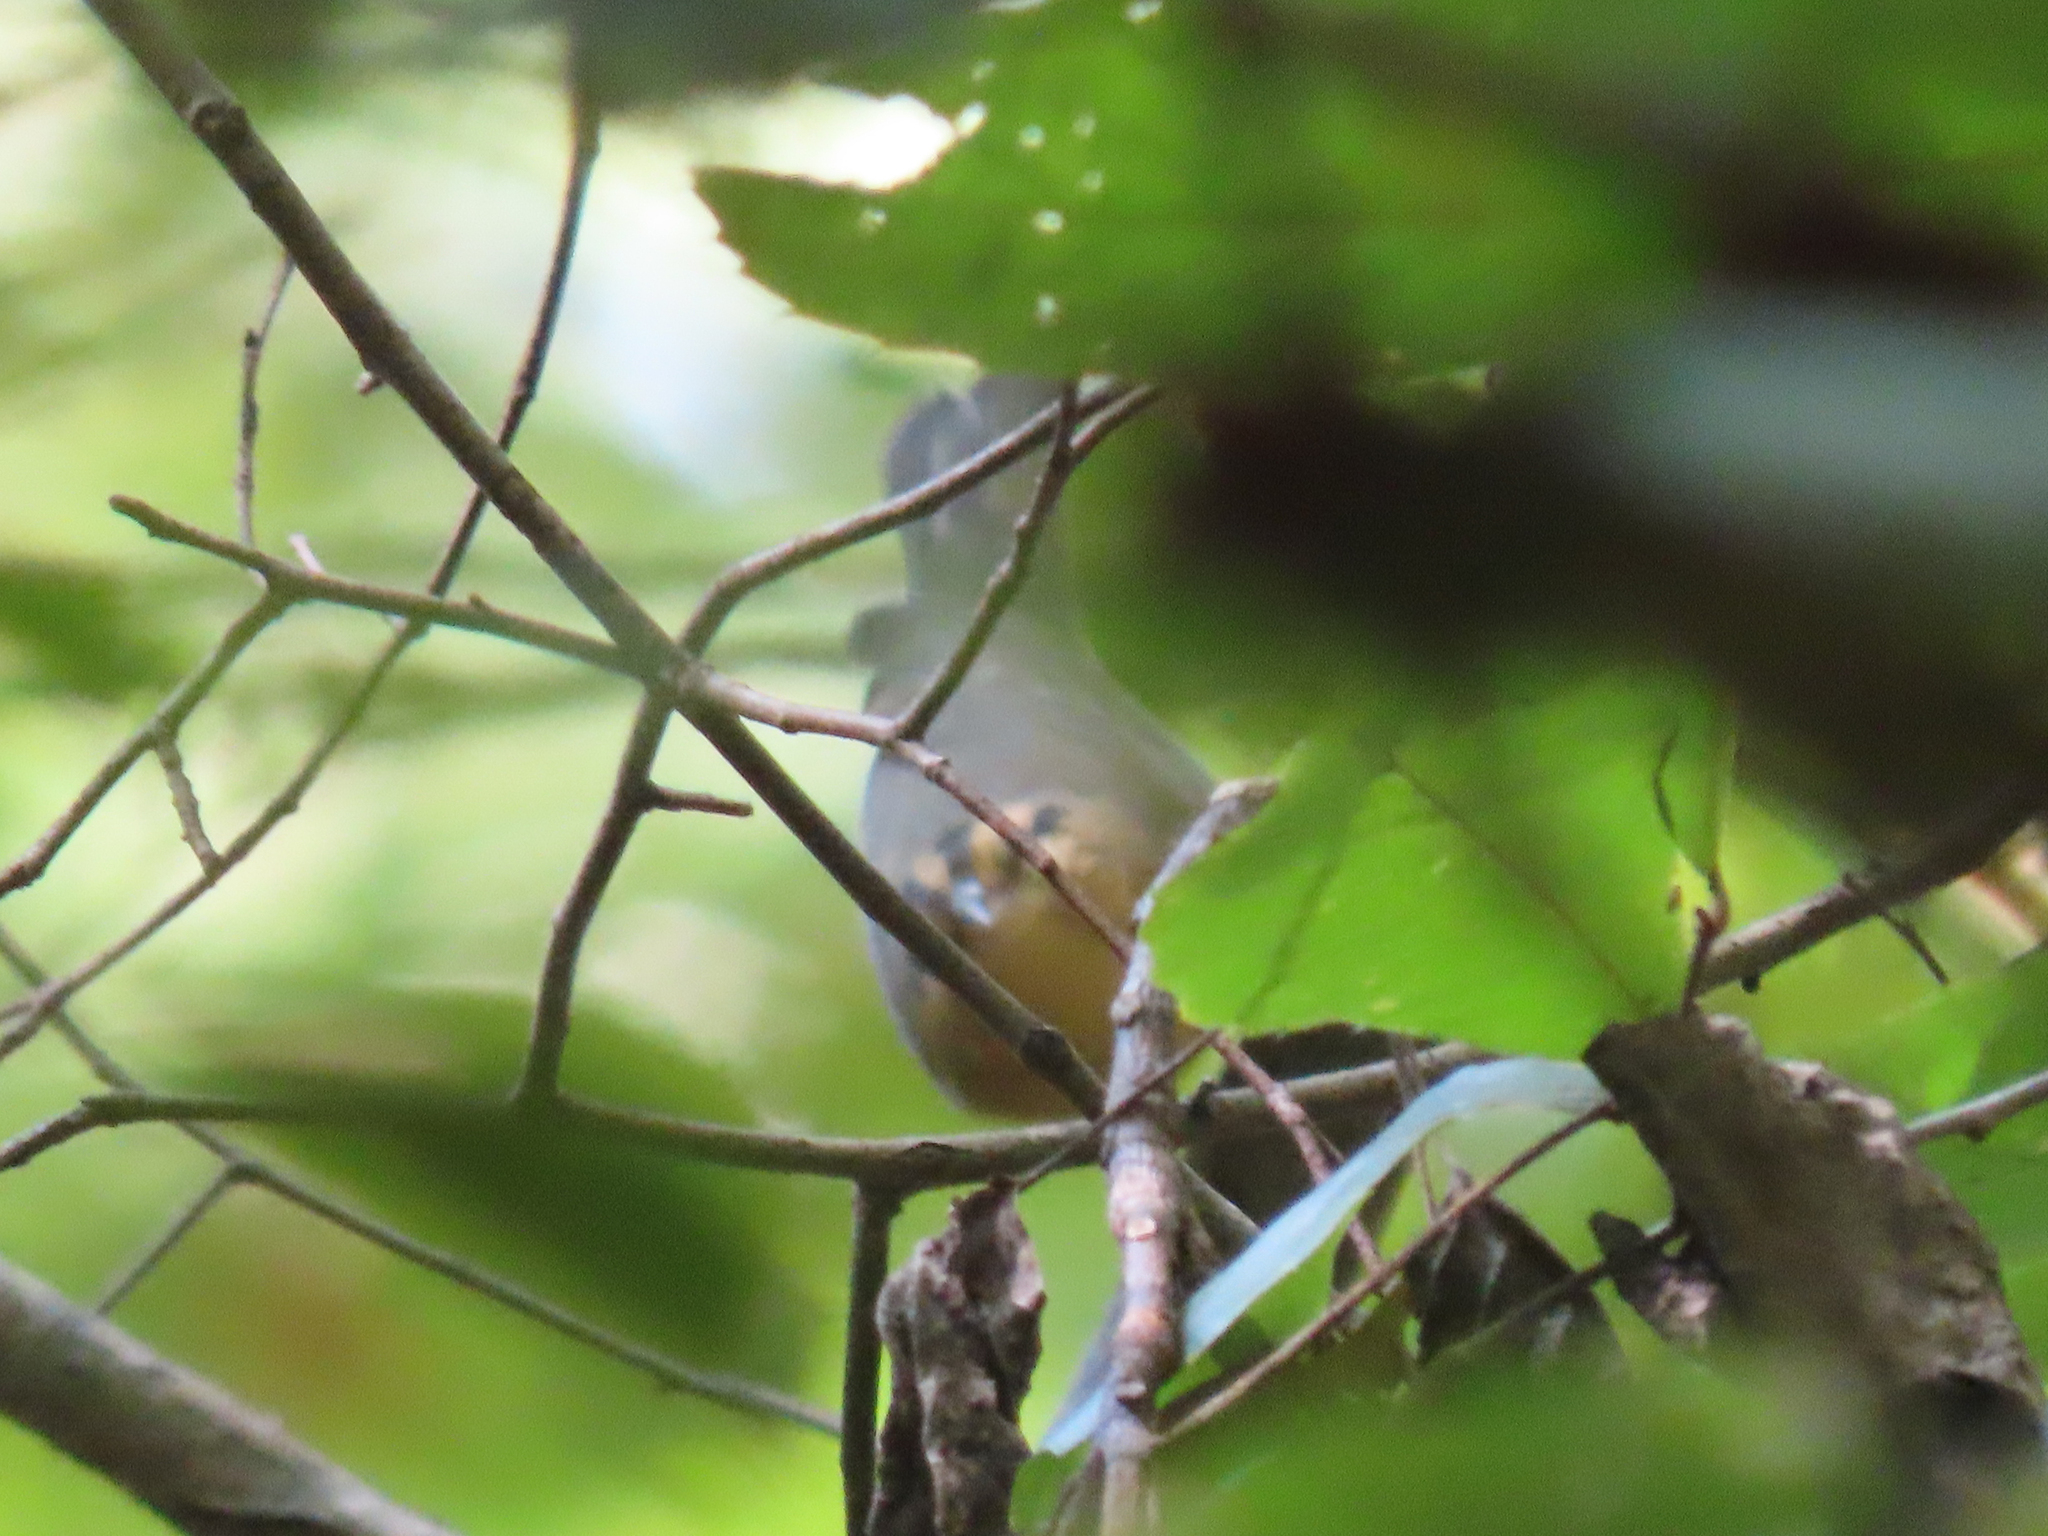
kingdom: Animalia
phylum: Chordata
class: Aves
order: Passeriformes
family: Parulidae
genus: Helmitheros
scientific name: Helmitheros vermivorum
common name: Worm-eating warbler
